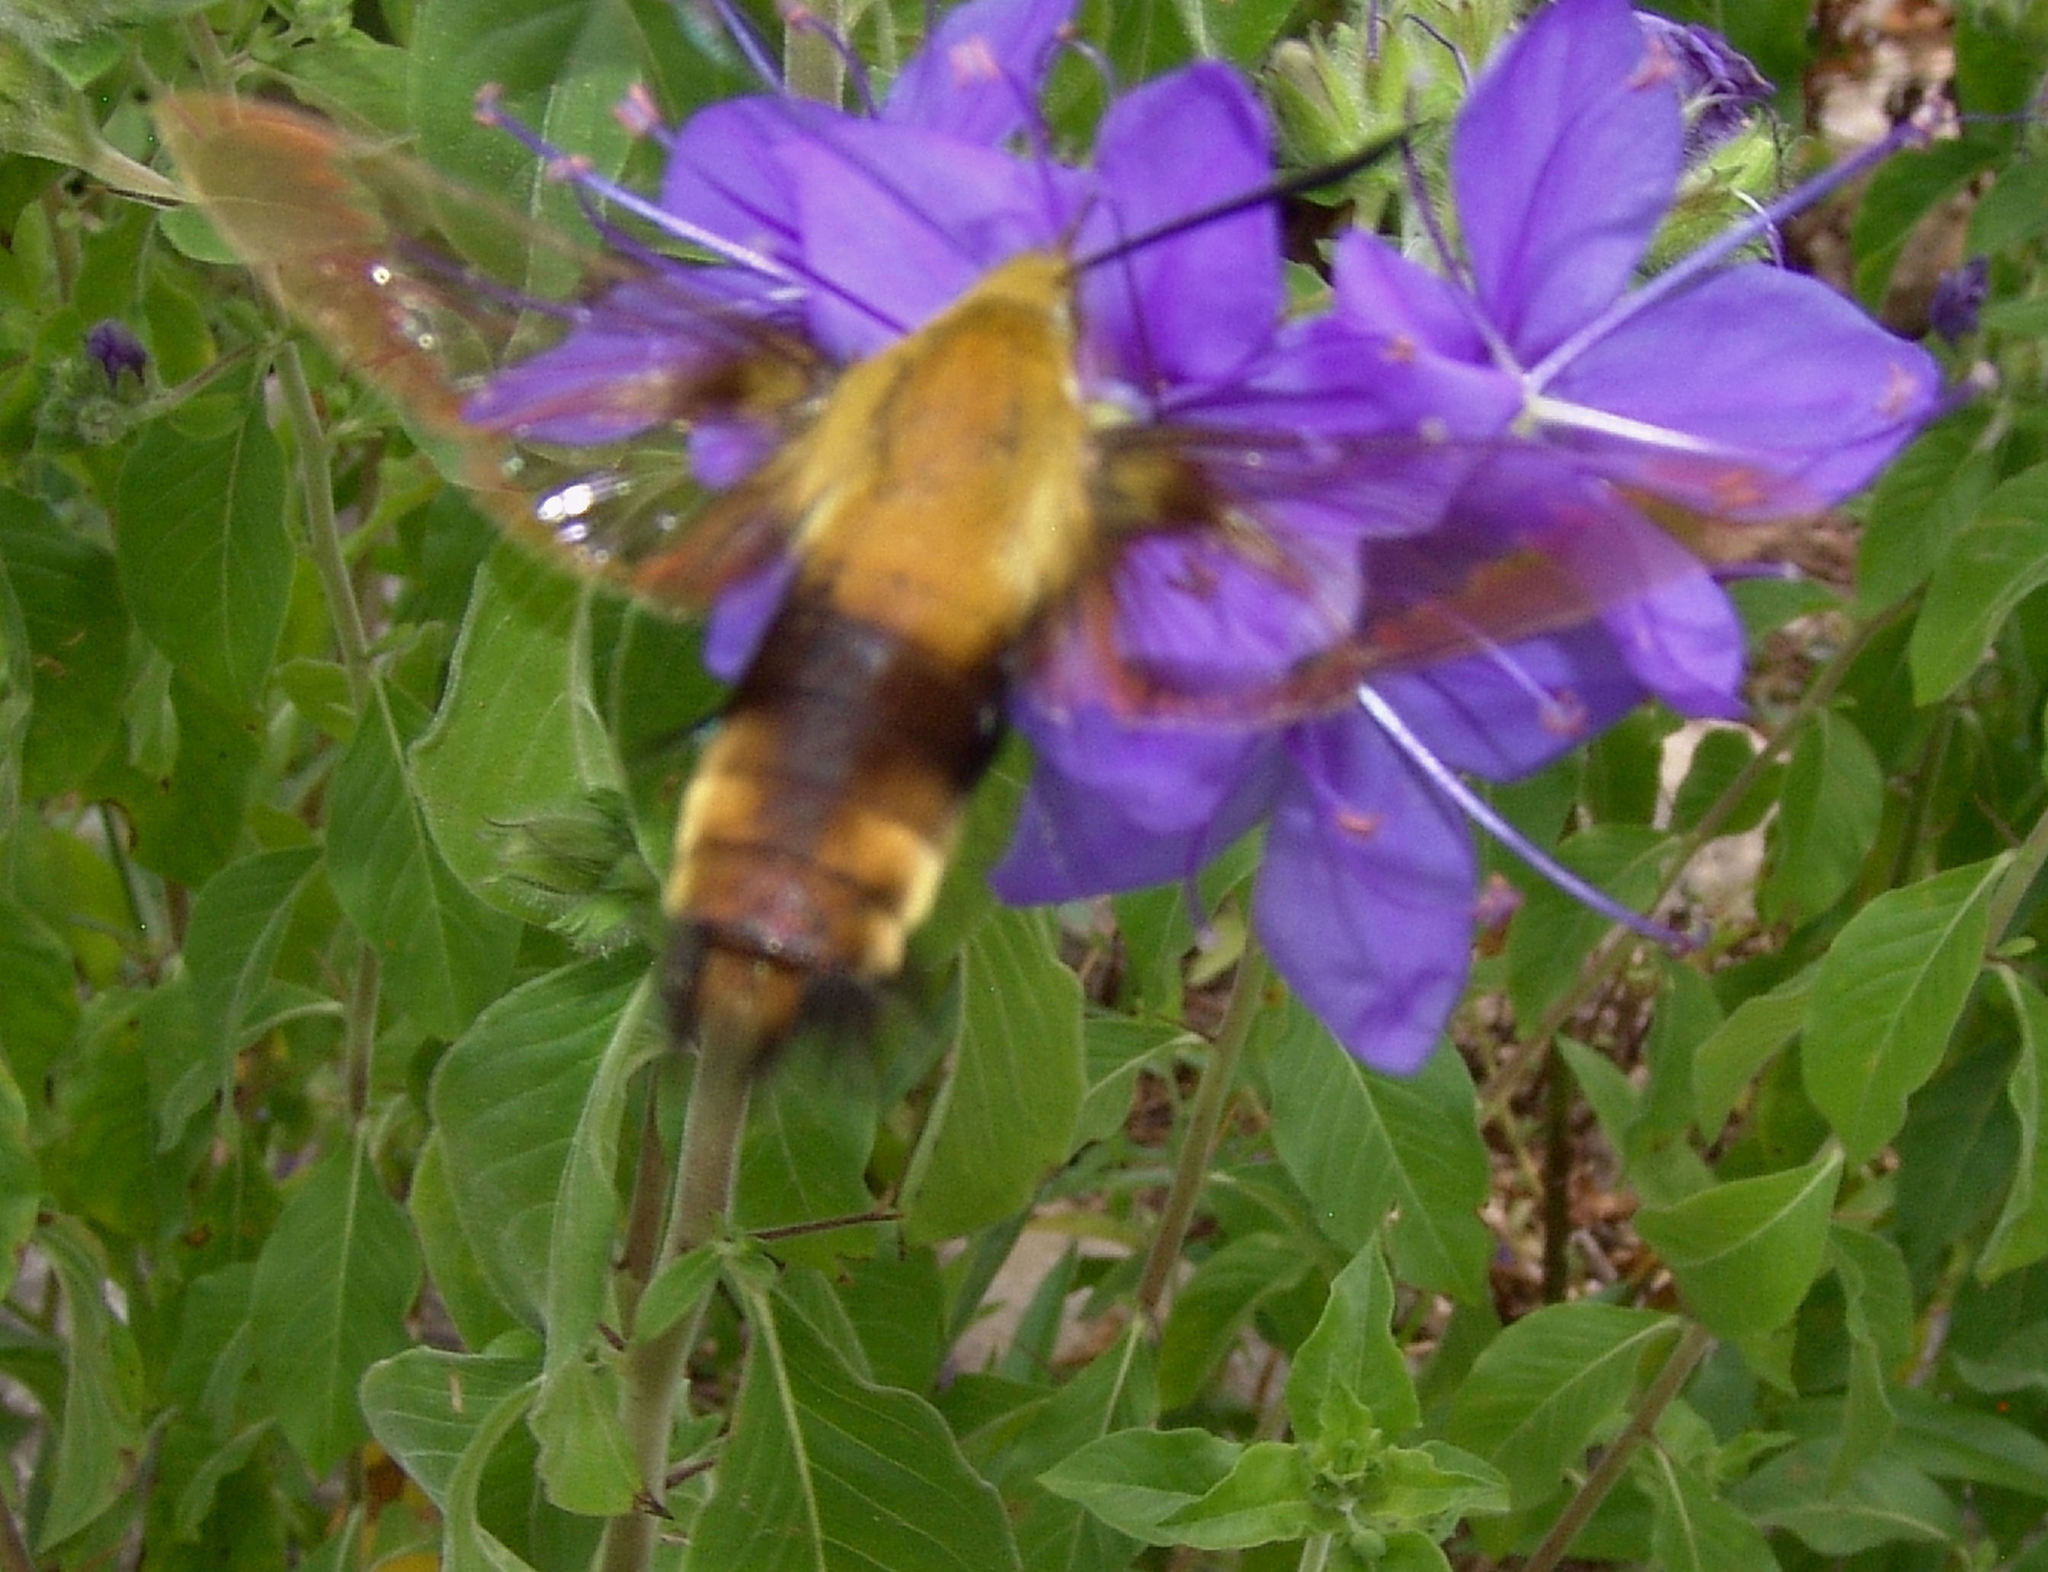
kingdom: Animalia
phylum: Arthropoda
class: Insecta
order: Lepidoptera
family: Sphingidae
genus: Hemaris
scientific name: Hemaris diffinis
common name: Bumblebee moth
